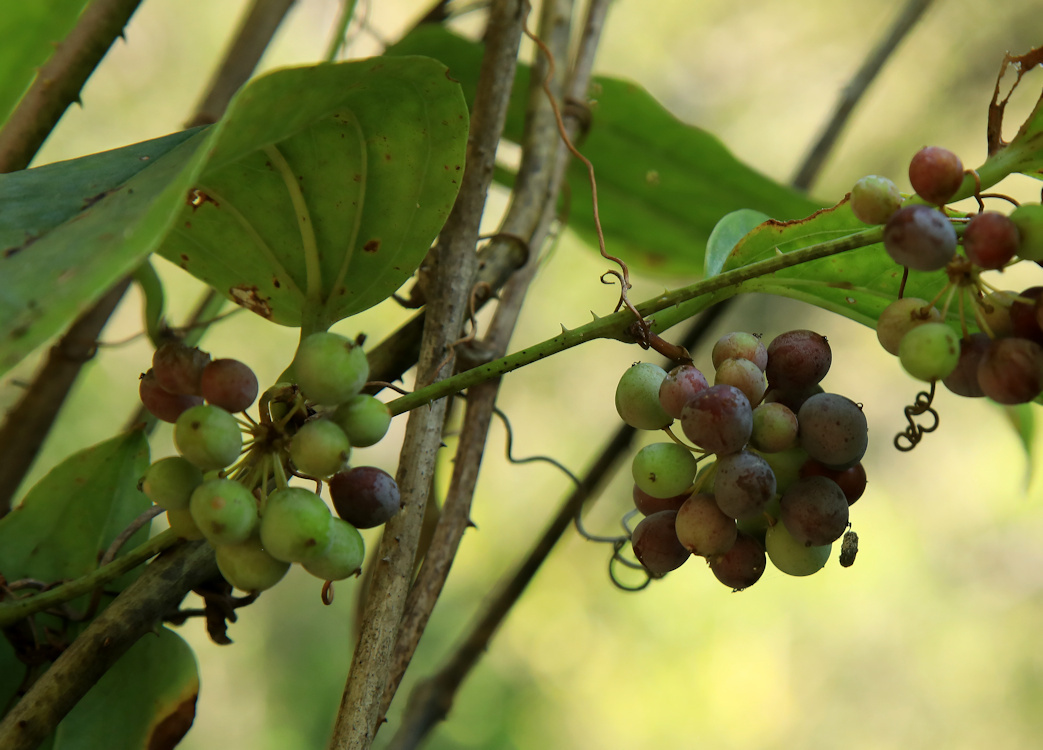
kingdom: Plantae
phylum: Tracheophyta
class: Liliopsida
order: Liliales
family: Smilacaceae
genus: Smilax
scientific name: Smilax anceps
